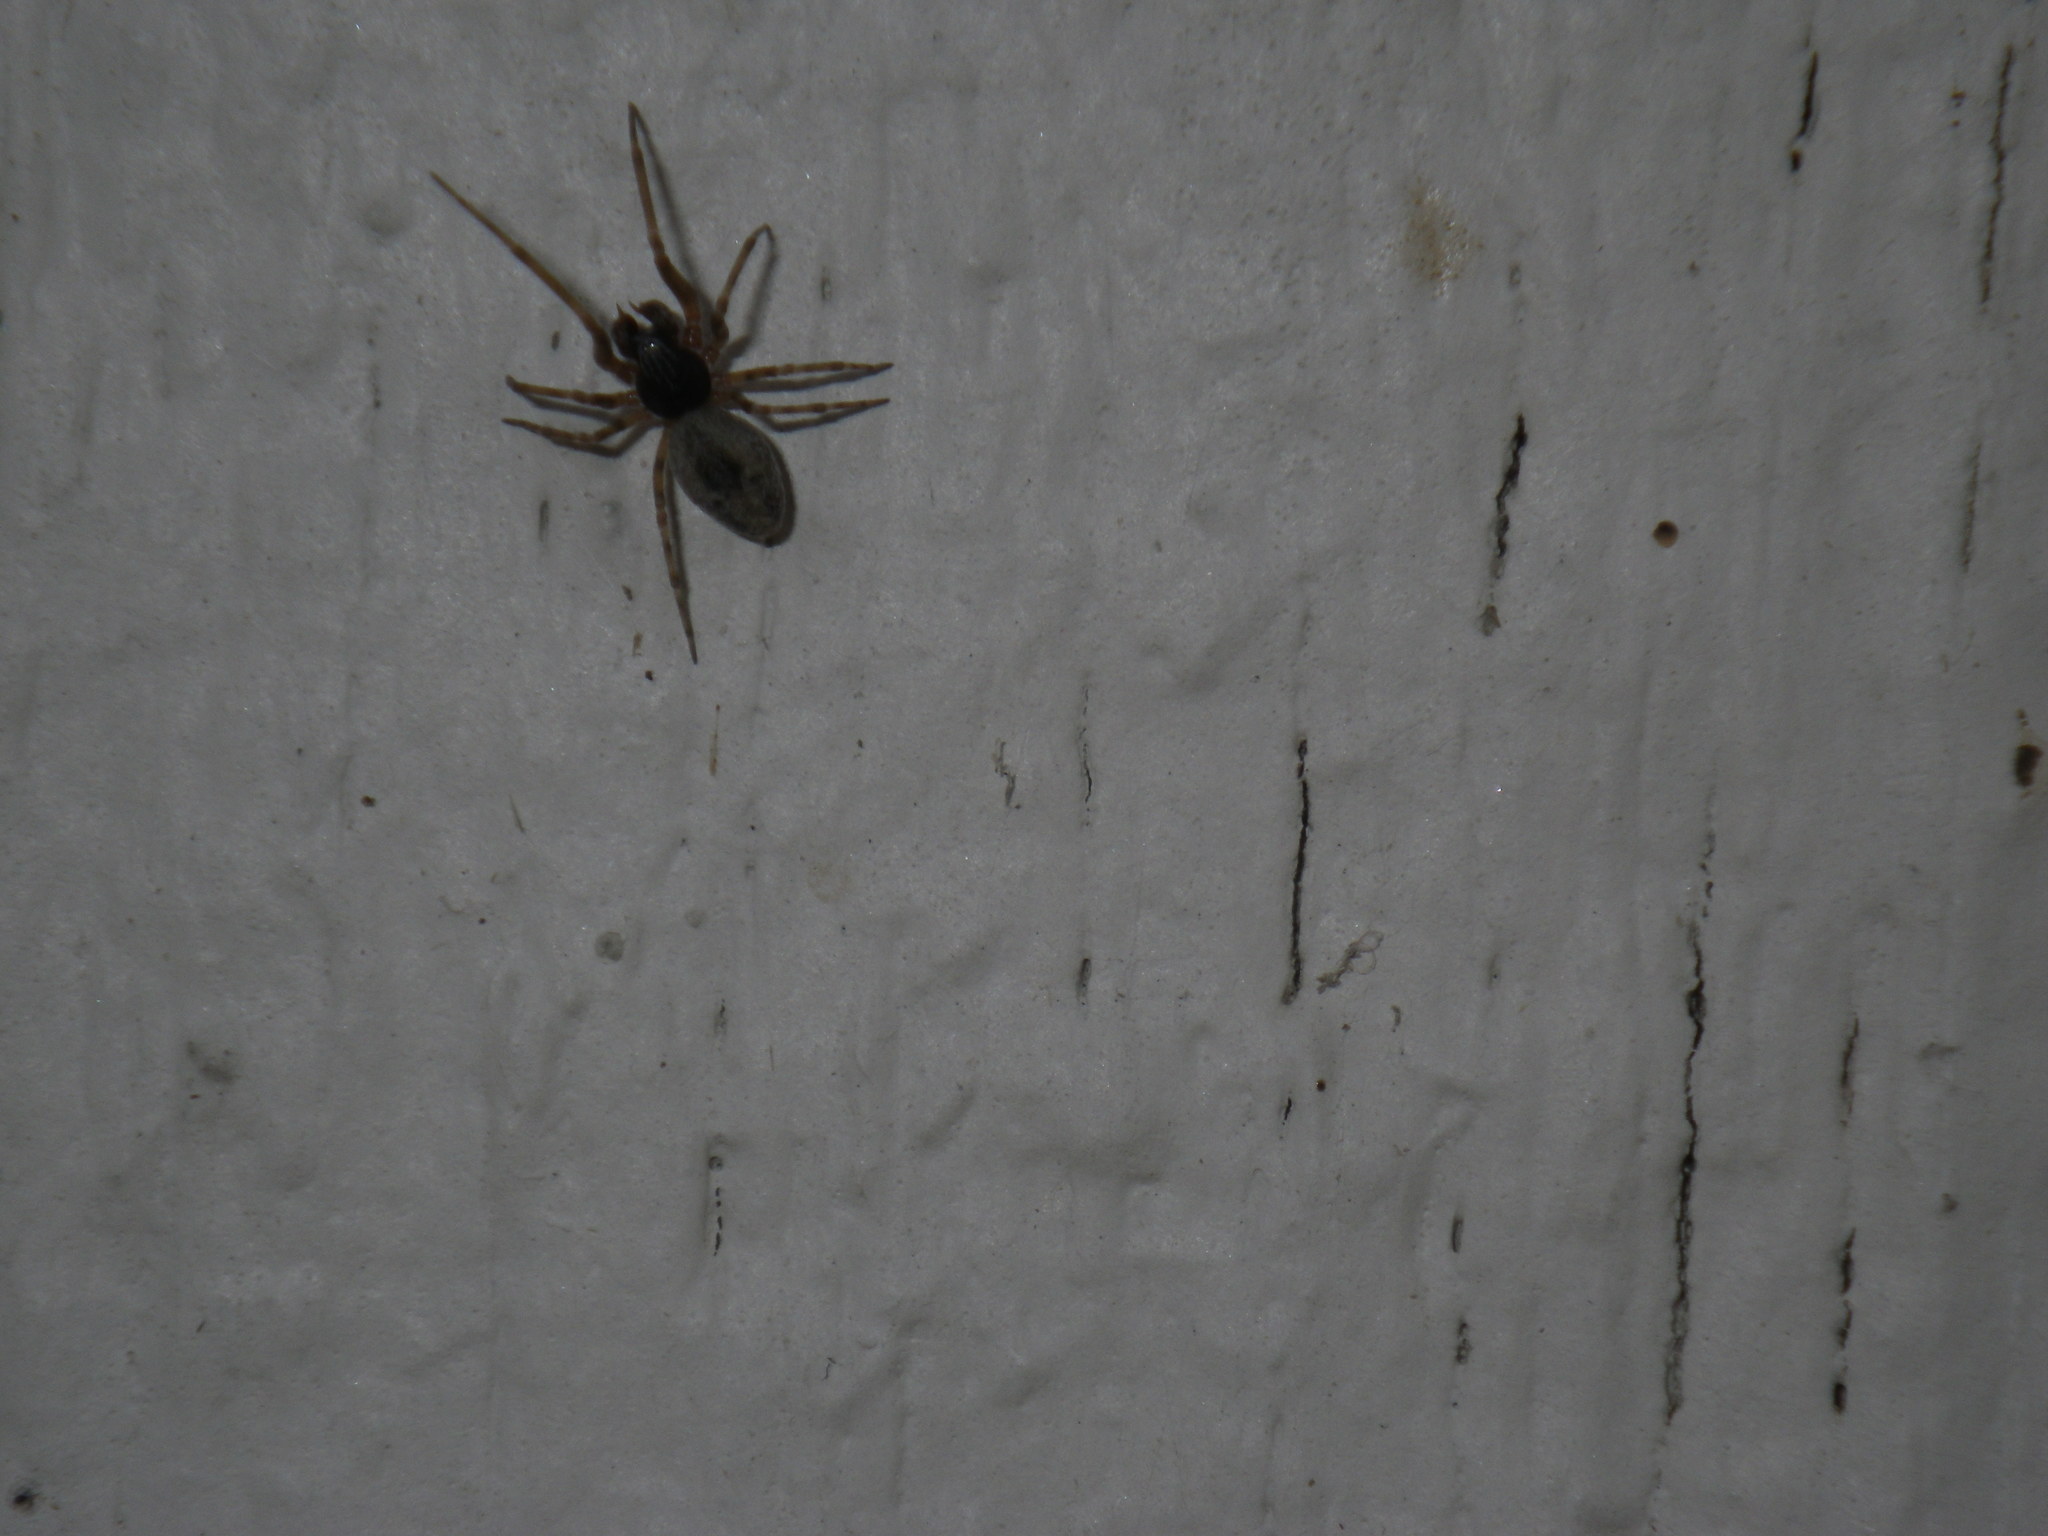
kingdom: Animalia
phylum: Arthropoda
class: Arachnida
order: Araneae
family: Dictynidae
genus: Dictyna
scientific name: Dictyna calcarata
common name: Mesh weaver
